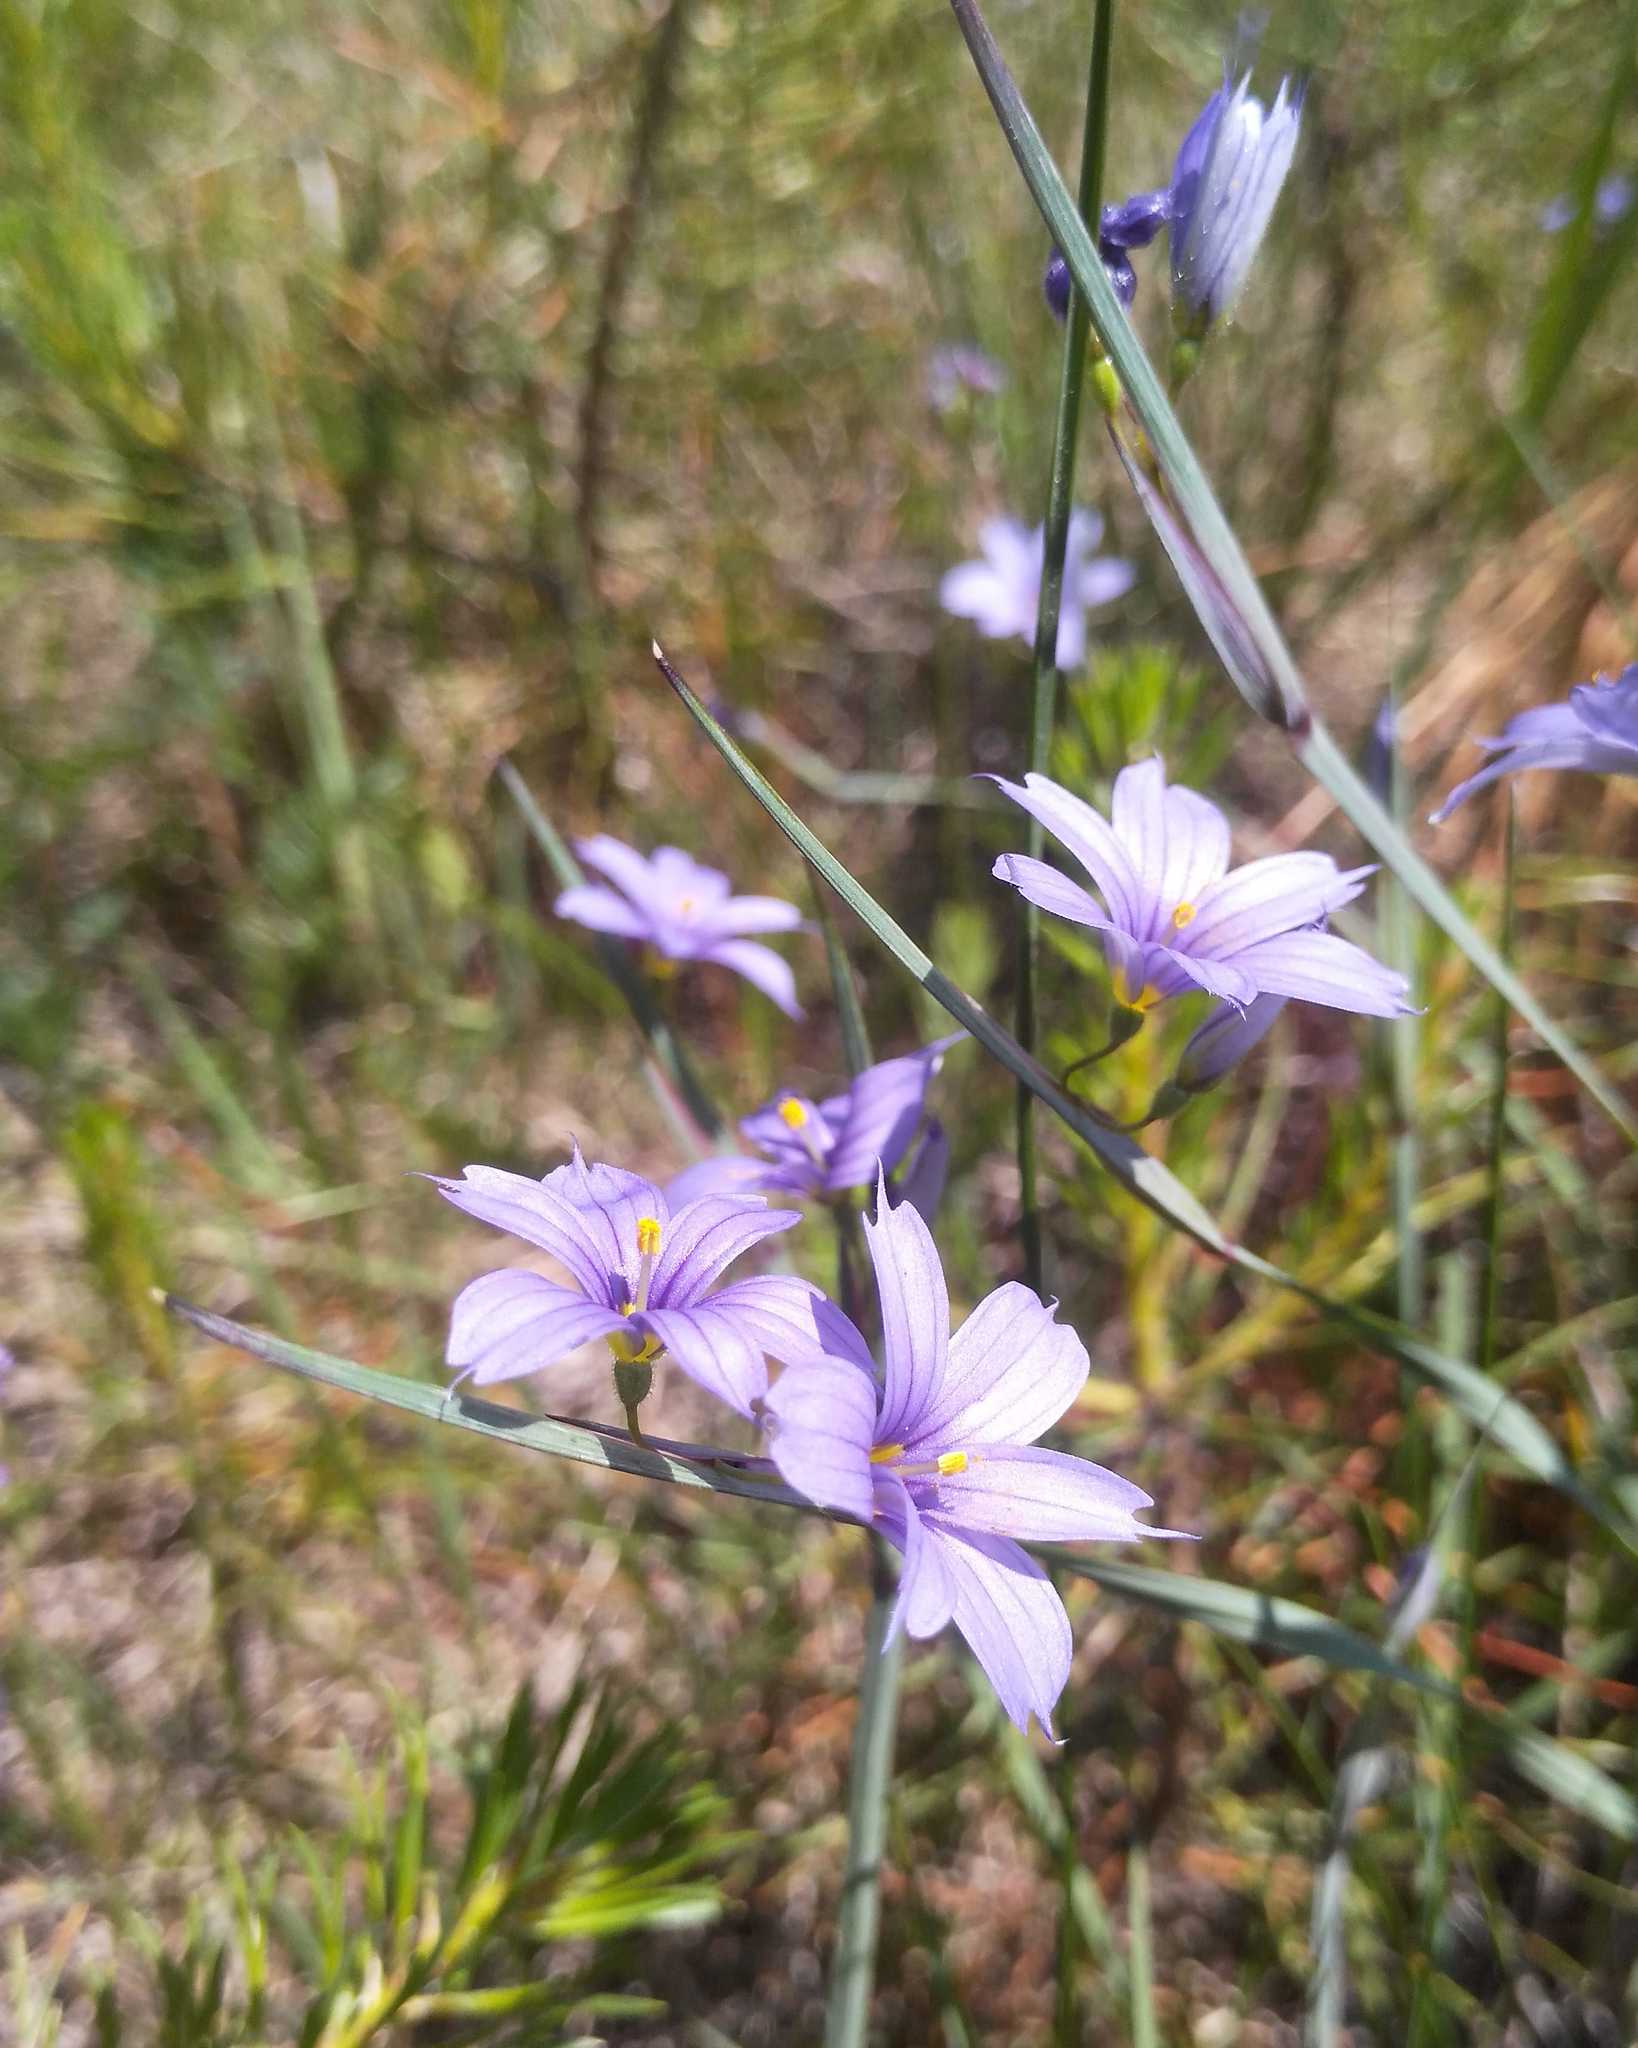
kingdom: Plantae
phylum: Tracheophyta
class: Liliopsida
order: Asparagales
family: Iridaceae
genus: Sisyrinchium
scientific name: Sisyrinchium montanum
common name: American blue-eyed-grass
